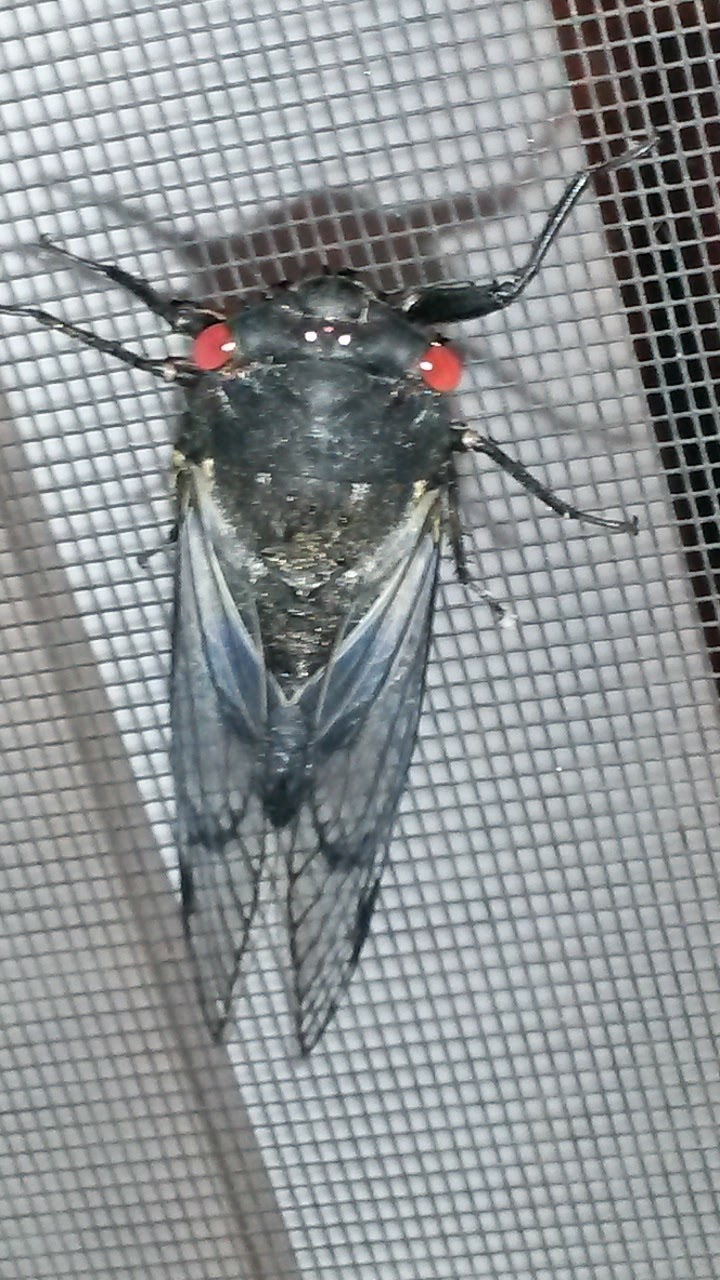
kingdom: Animalia
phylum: Arthropoda
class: Insecta
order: Hemiptera
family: Cicadidae
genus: Psaltoda
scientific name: Psaltoda moerens
